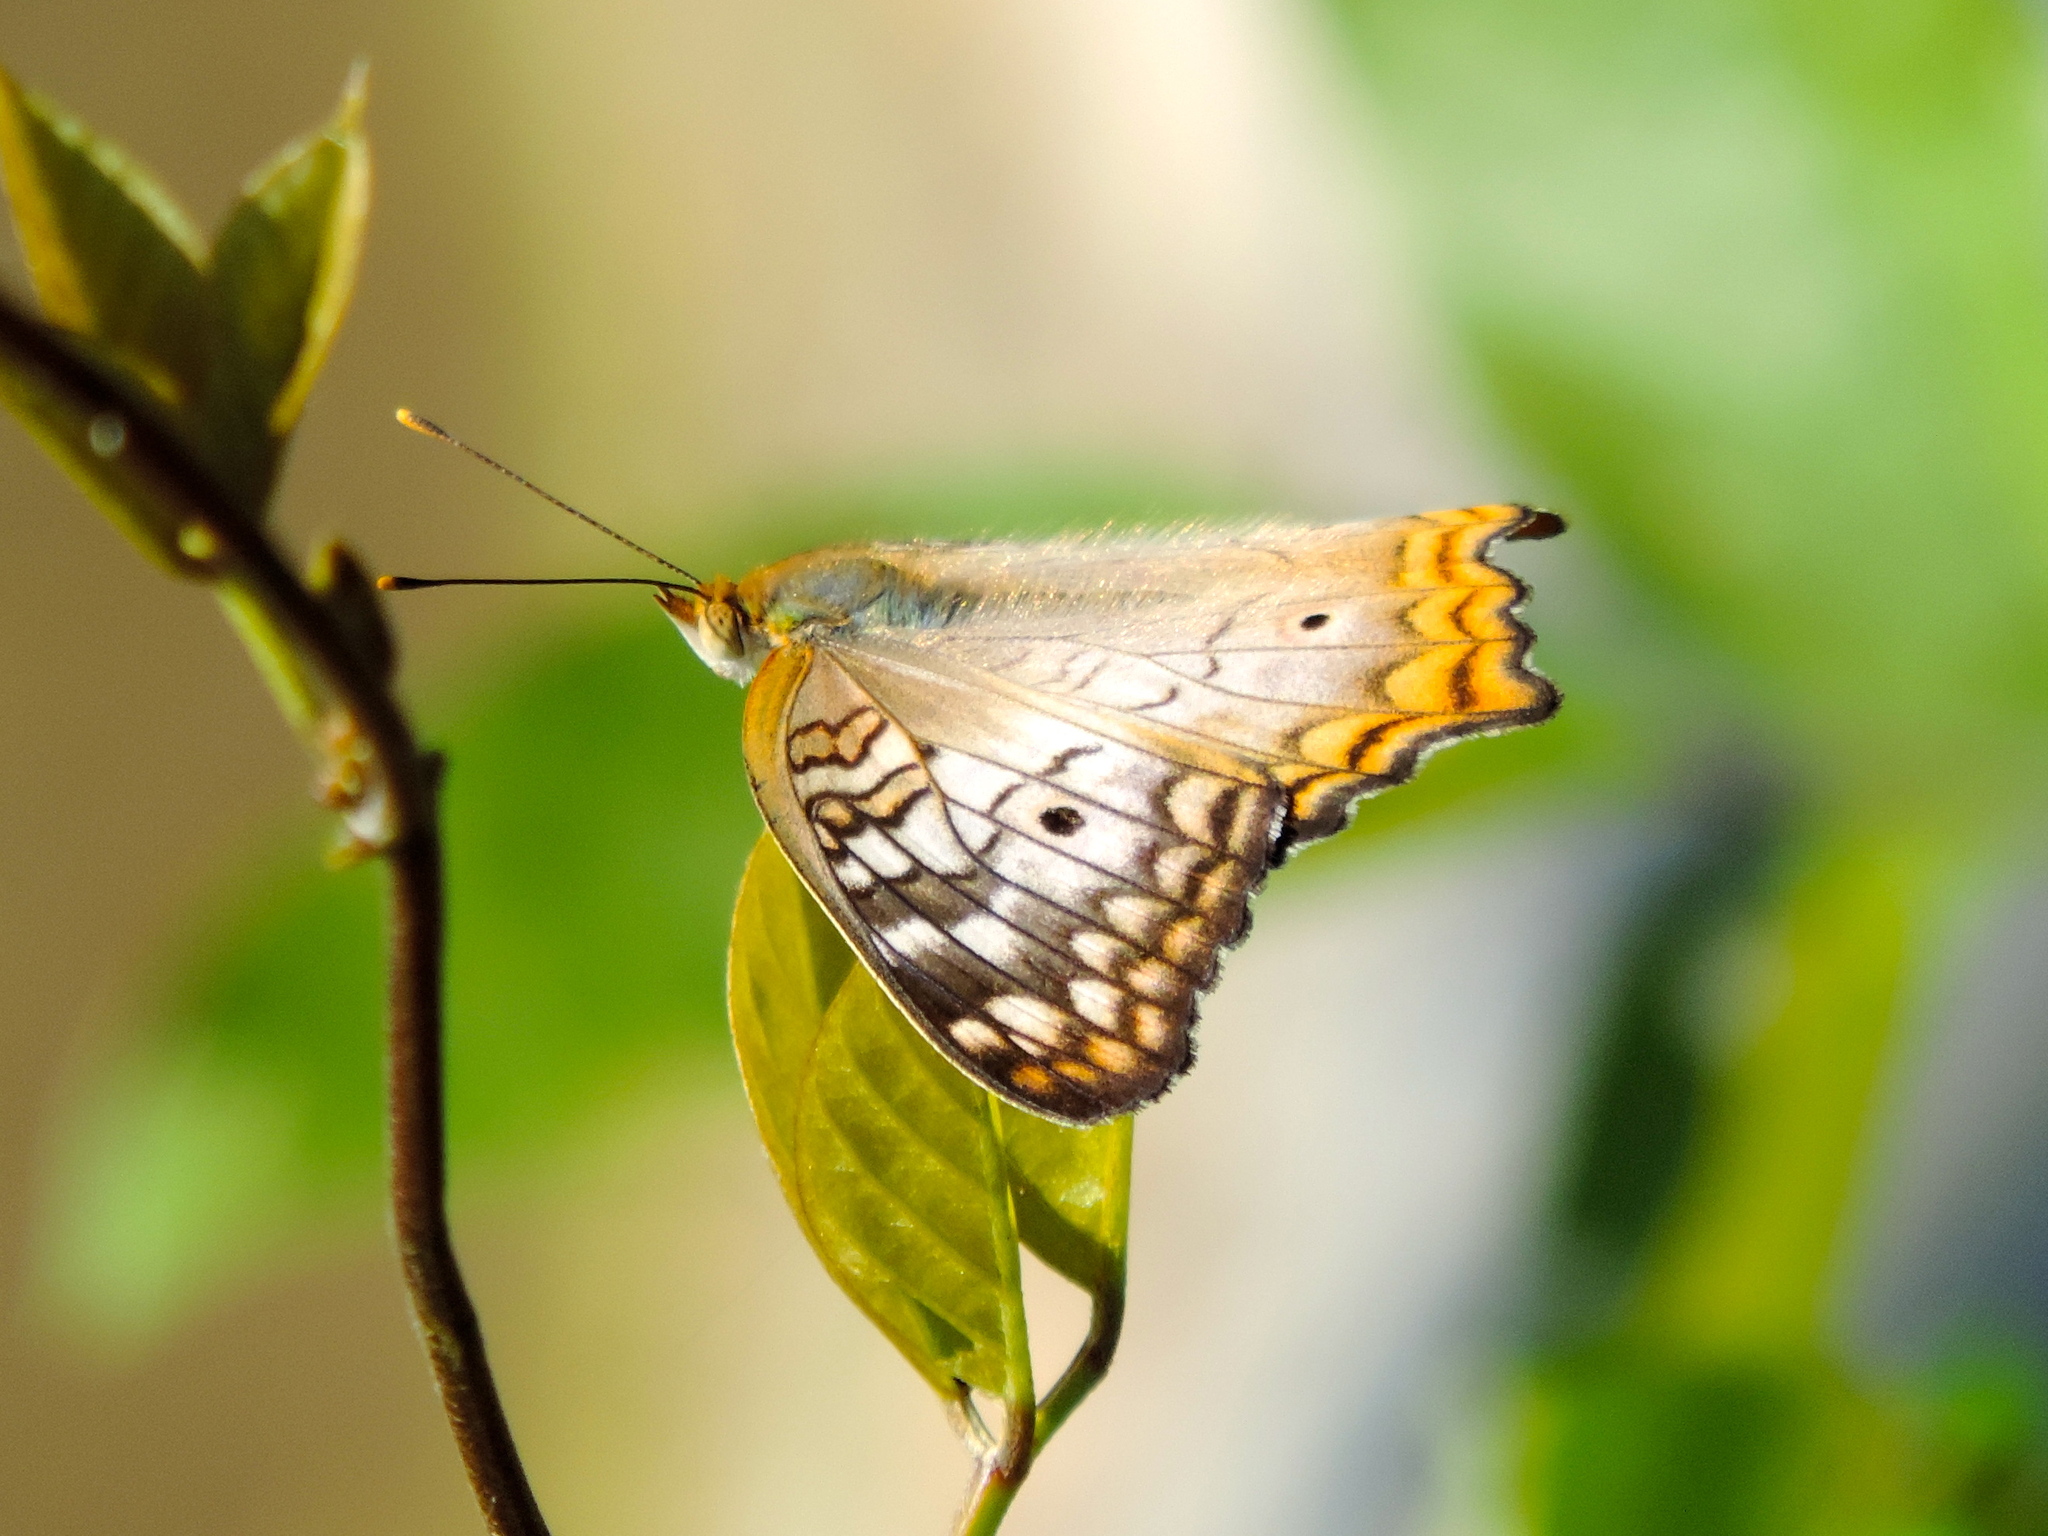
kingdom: Animalia
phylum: Arthropoda
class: Insecta
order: Lepidoptera
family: Nymphalidae
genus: Anartia
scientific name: Anartia jatrophae
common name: White peacock
